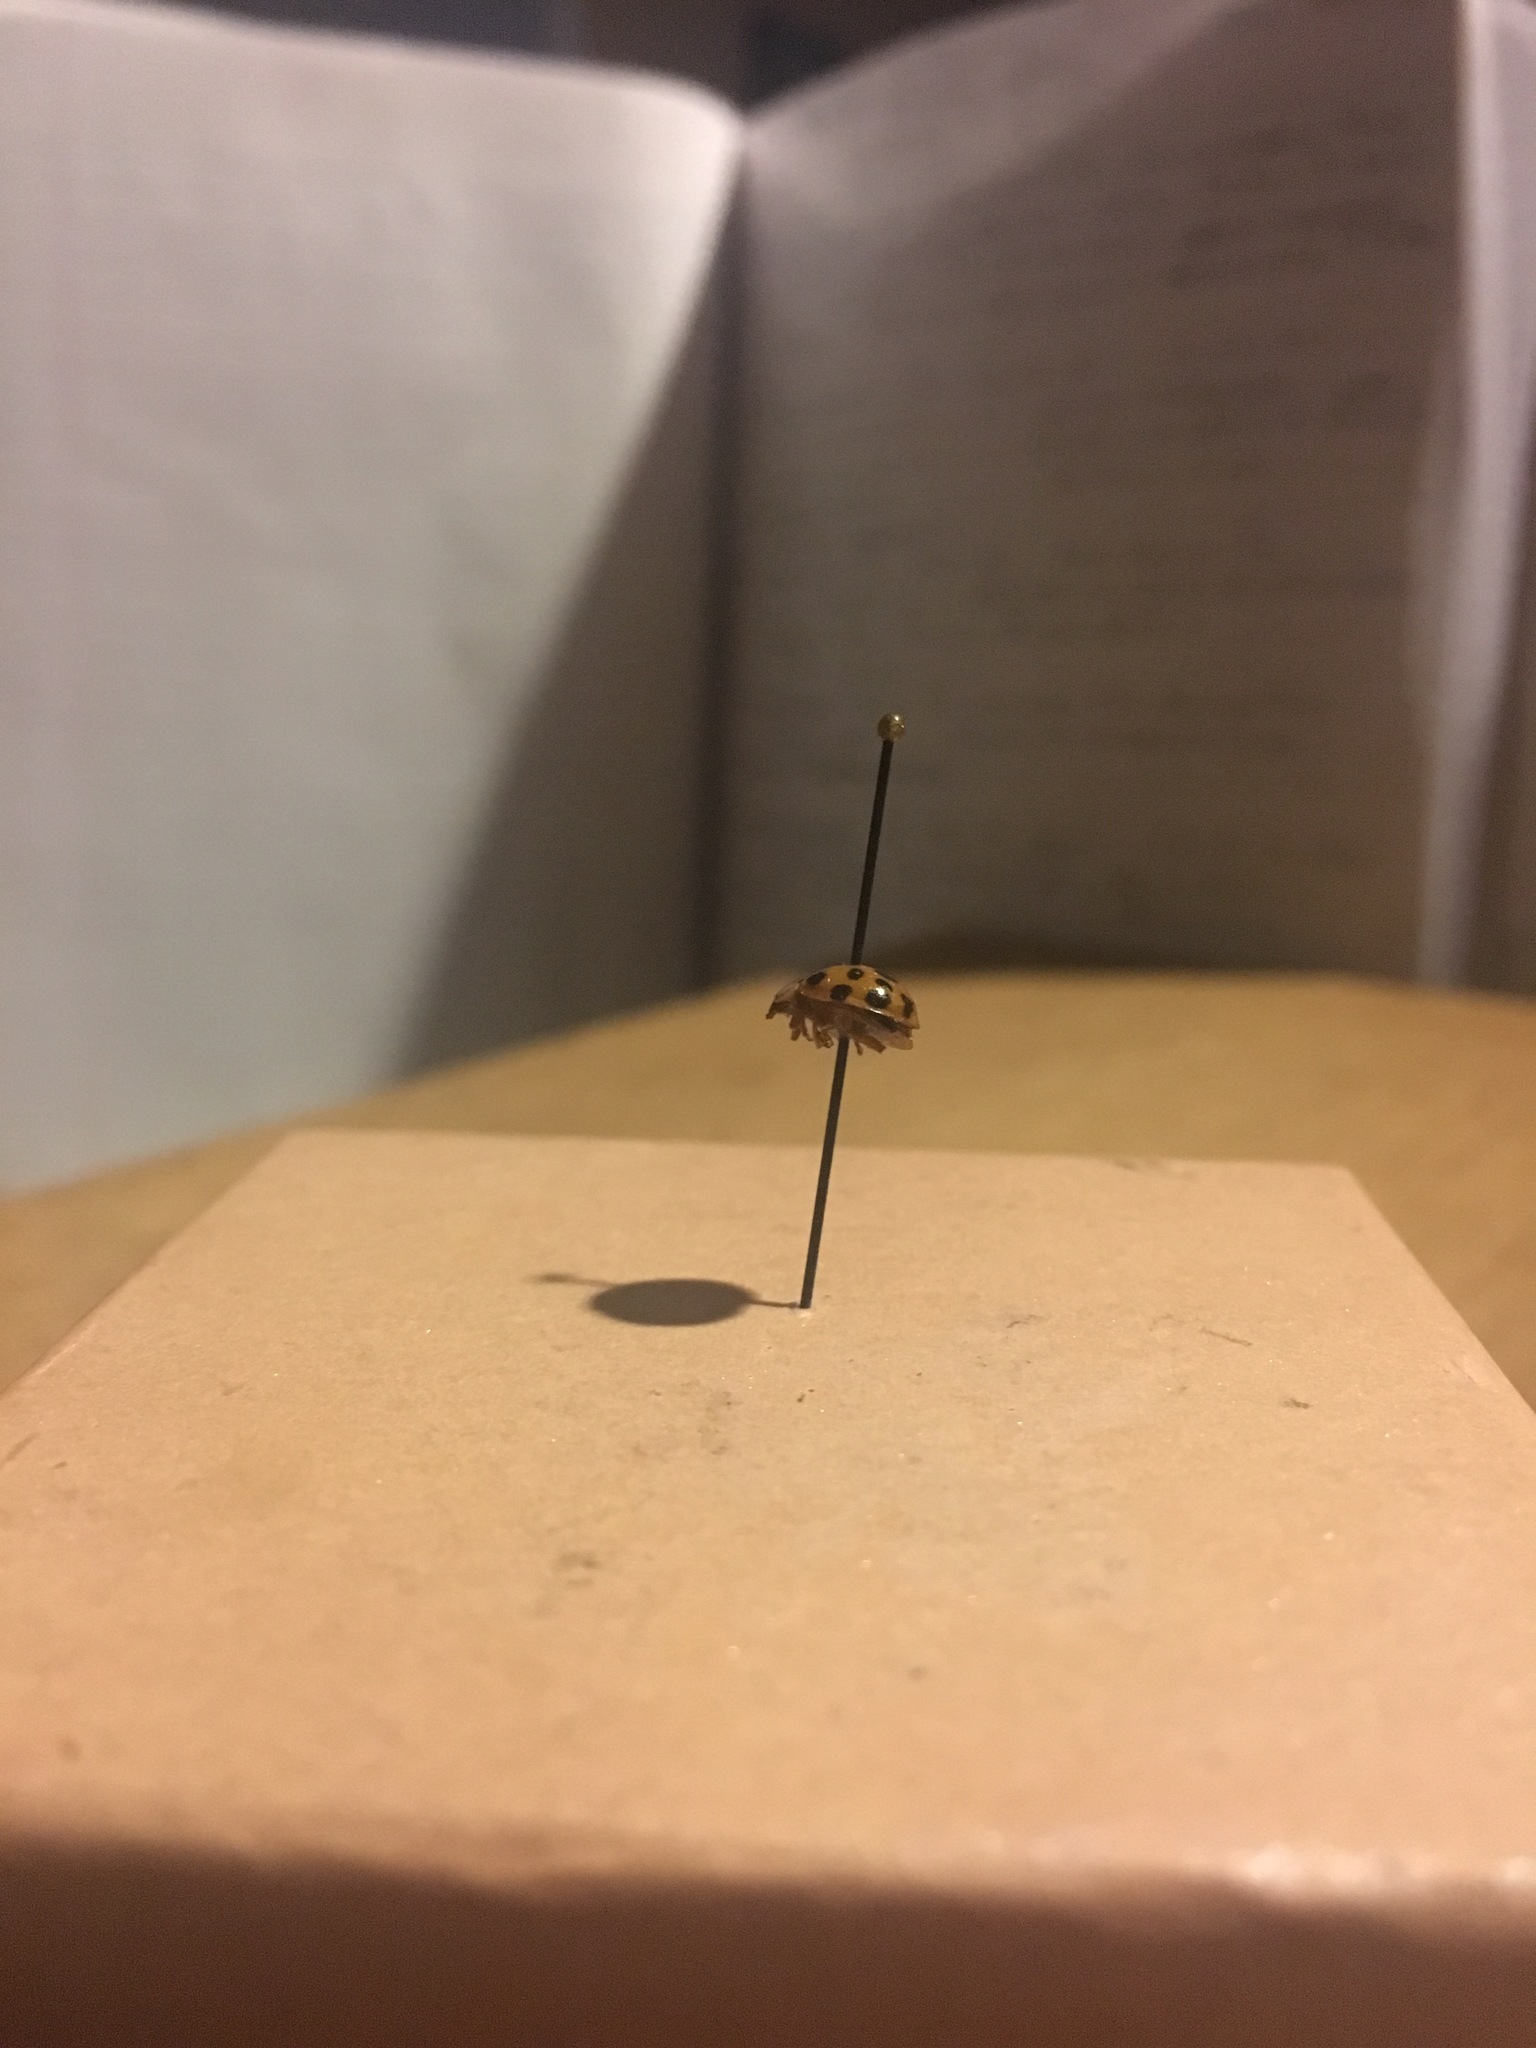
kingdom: Animalia
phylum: Arthropoda
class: Insecta
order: Coleoptera
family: Coccinellidae
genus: Harmonia
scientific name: Harmonia axyridis
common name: Harlequin ladybird
